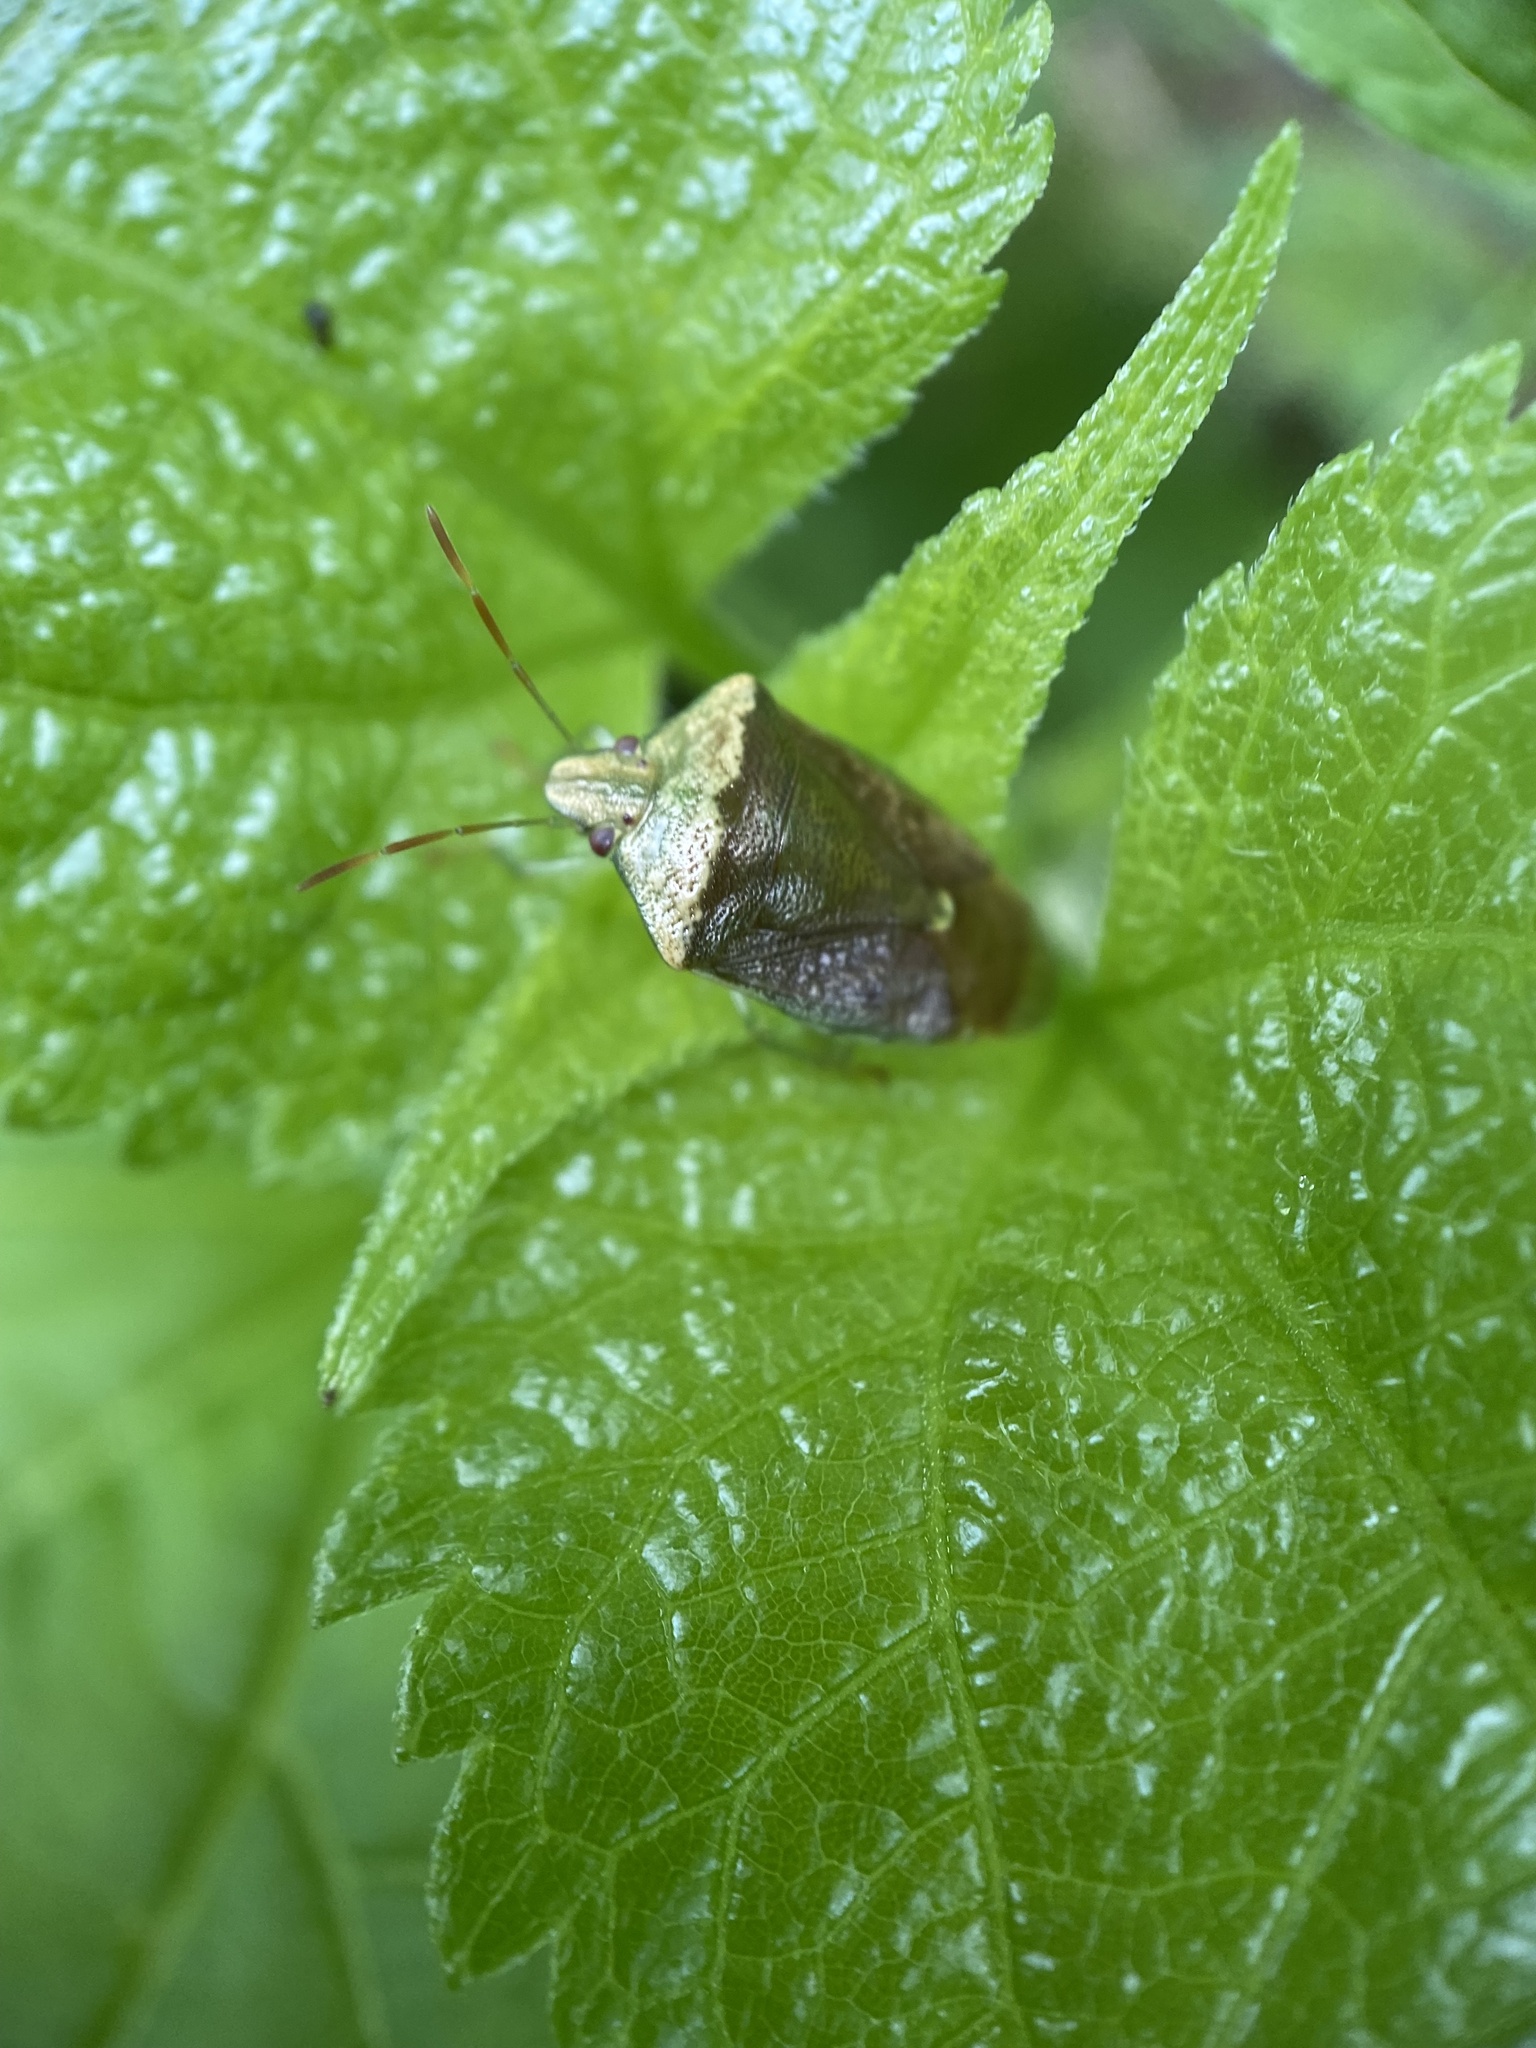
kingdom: Animalia
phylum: Arthropoda
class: Insecta
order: Hemiptera
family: Pentatomidae
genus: Banasa
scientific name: Banasa calva
